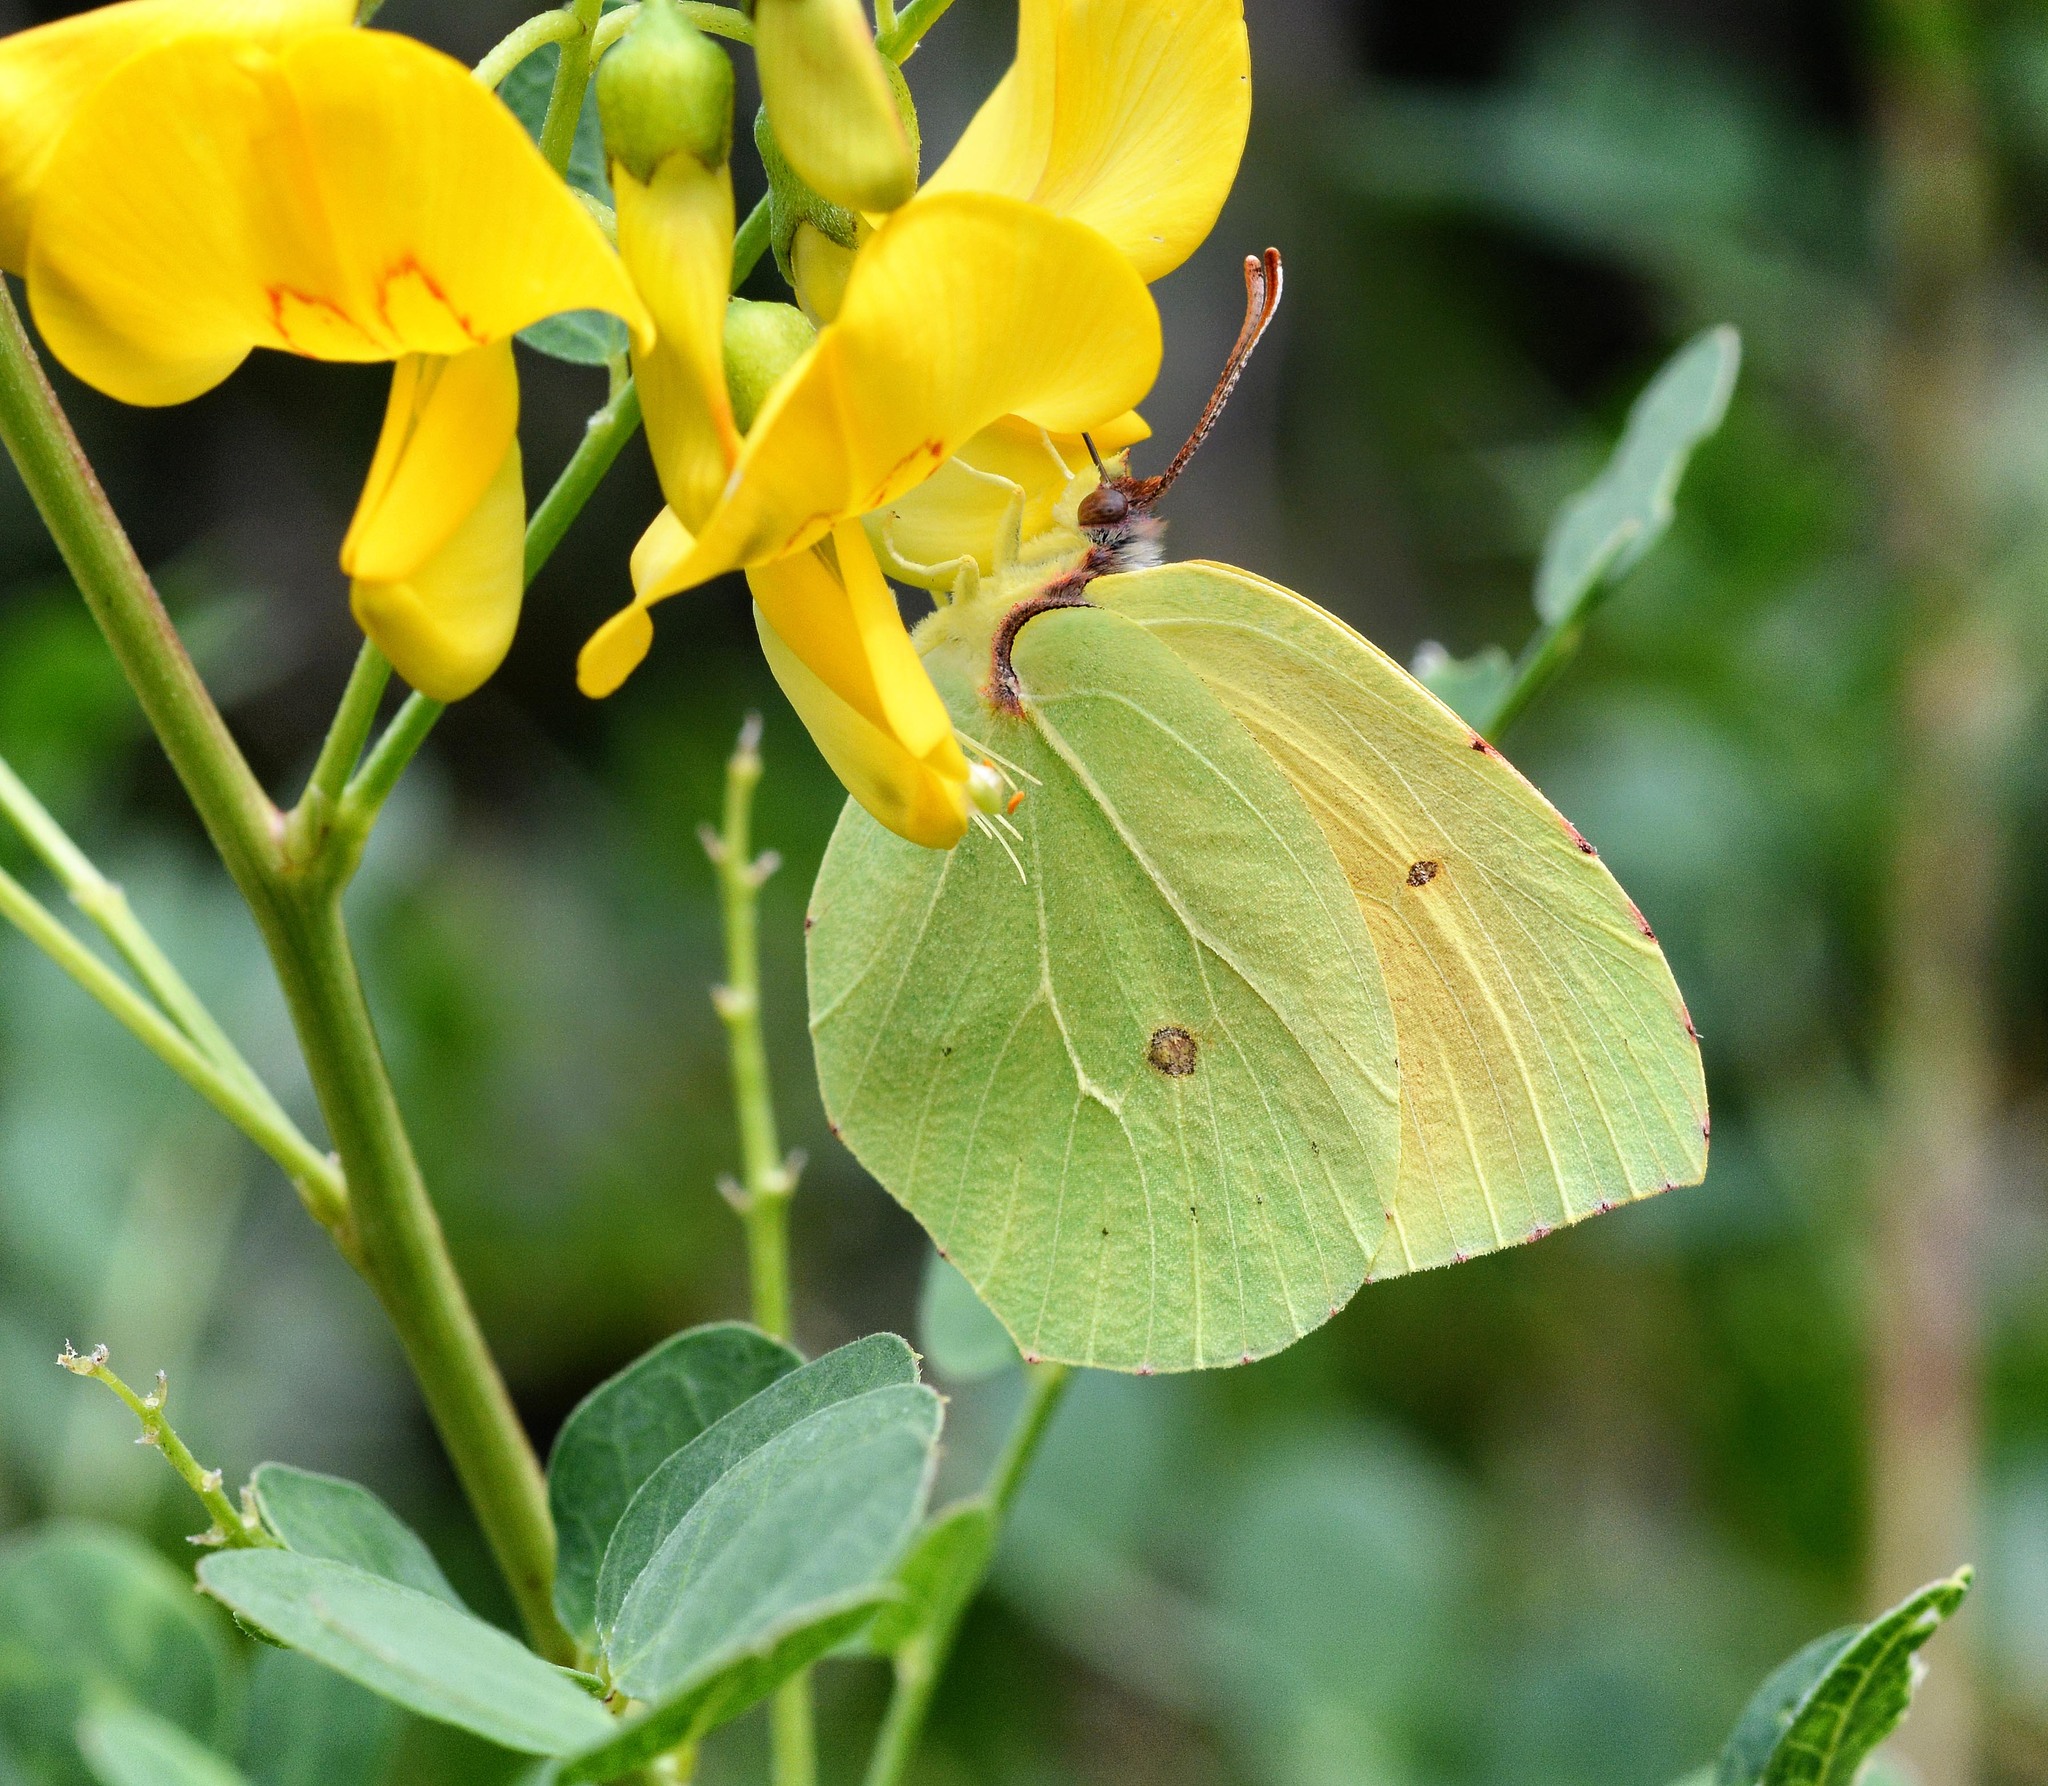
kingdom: Animalia
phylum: Arthropoda
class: Insecta
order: Lepidoptera
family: Pieridae
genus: Gonepteryx
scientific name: Gonepteryx cleopatra
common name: Cleopatra
